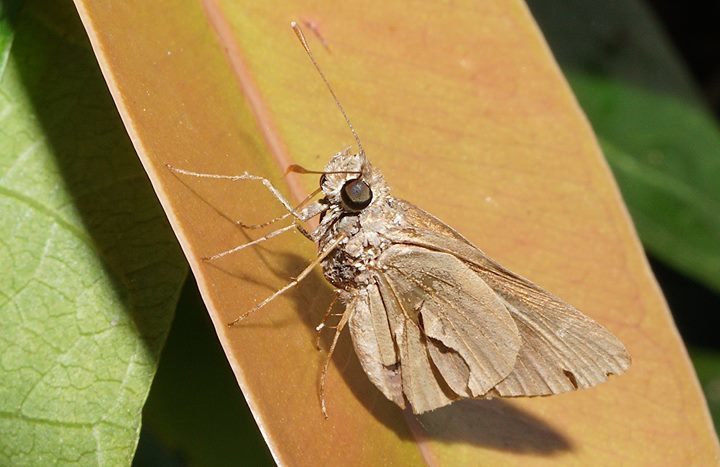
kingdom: Animalia
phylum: Arthropoda
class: Insecta
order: Lepidoptera
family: Hesperiidae
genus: Asbolis
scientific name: Asbolis capucinus
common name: Monk skipper
